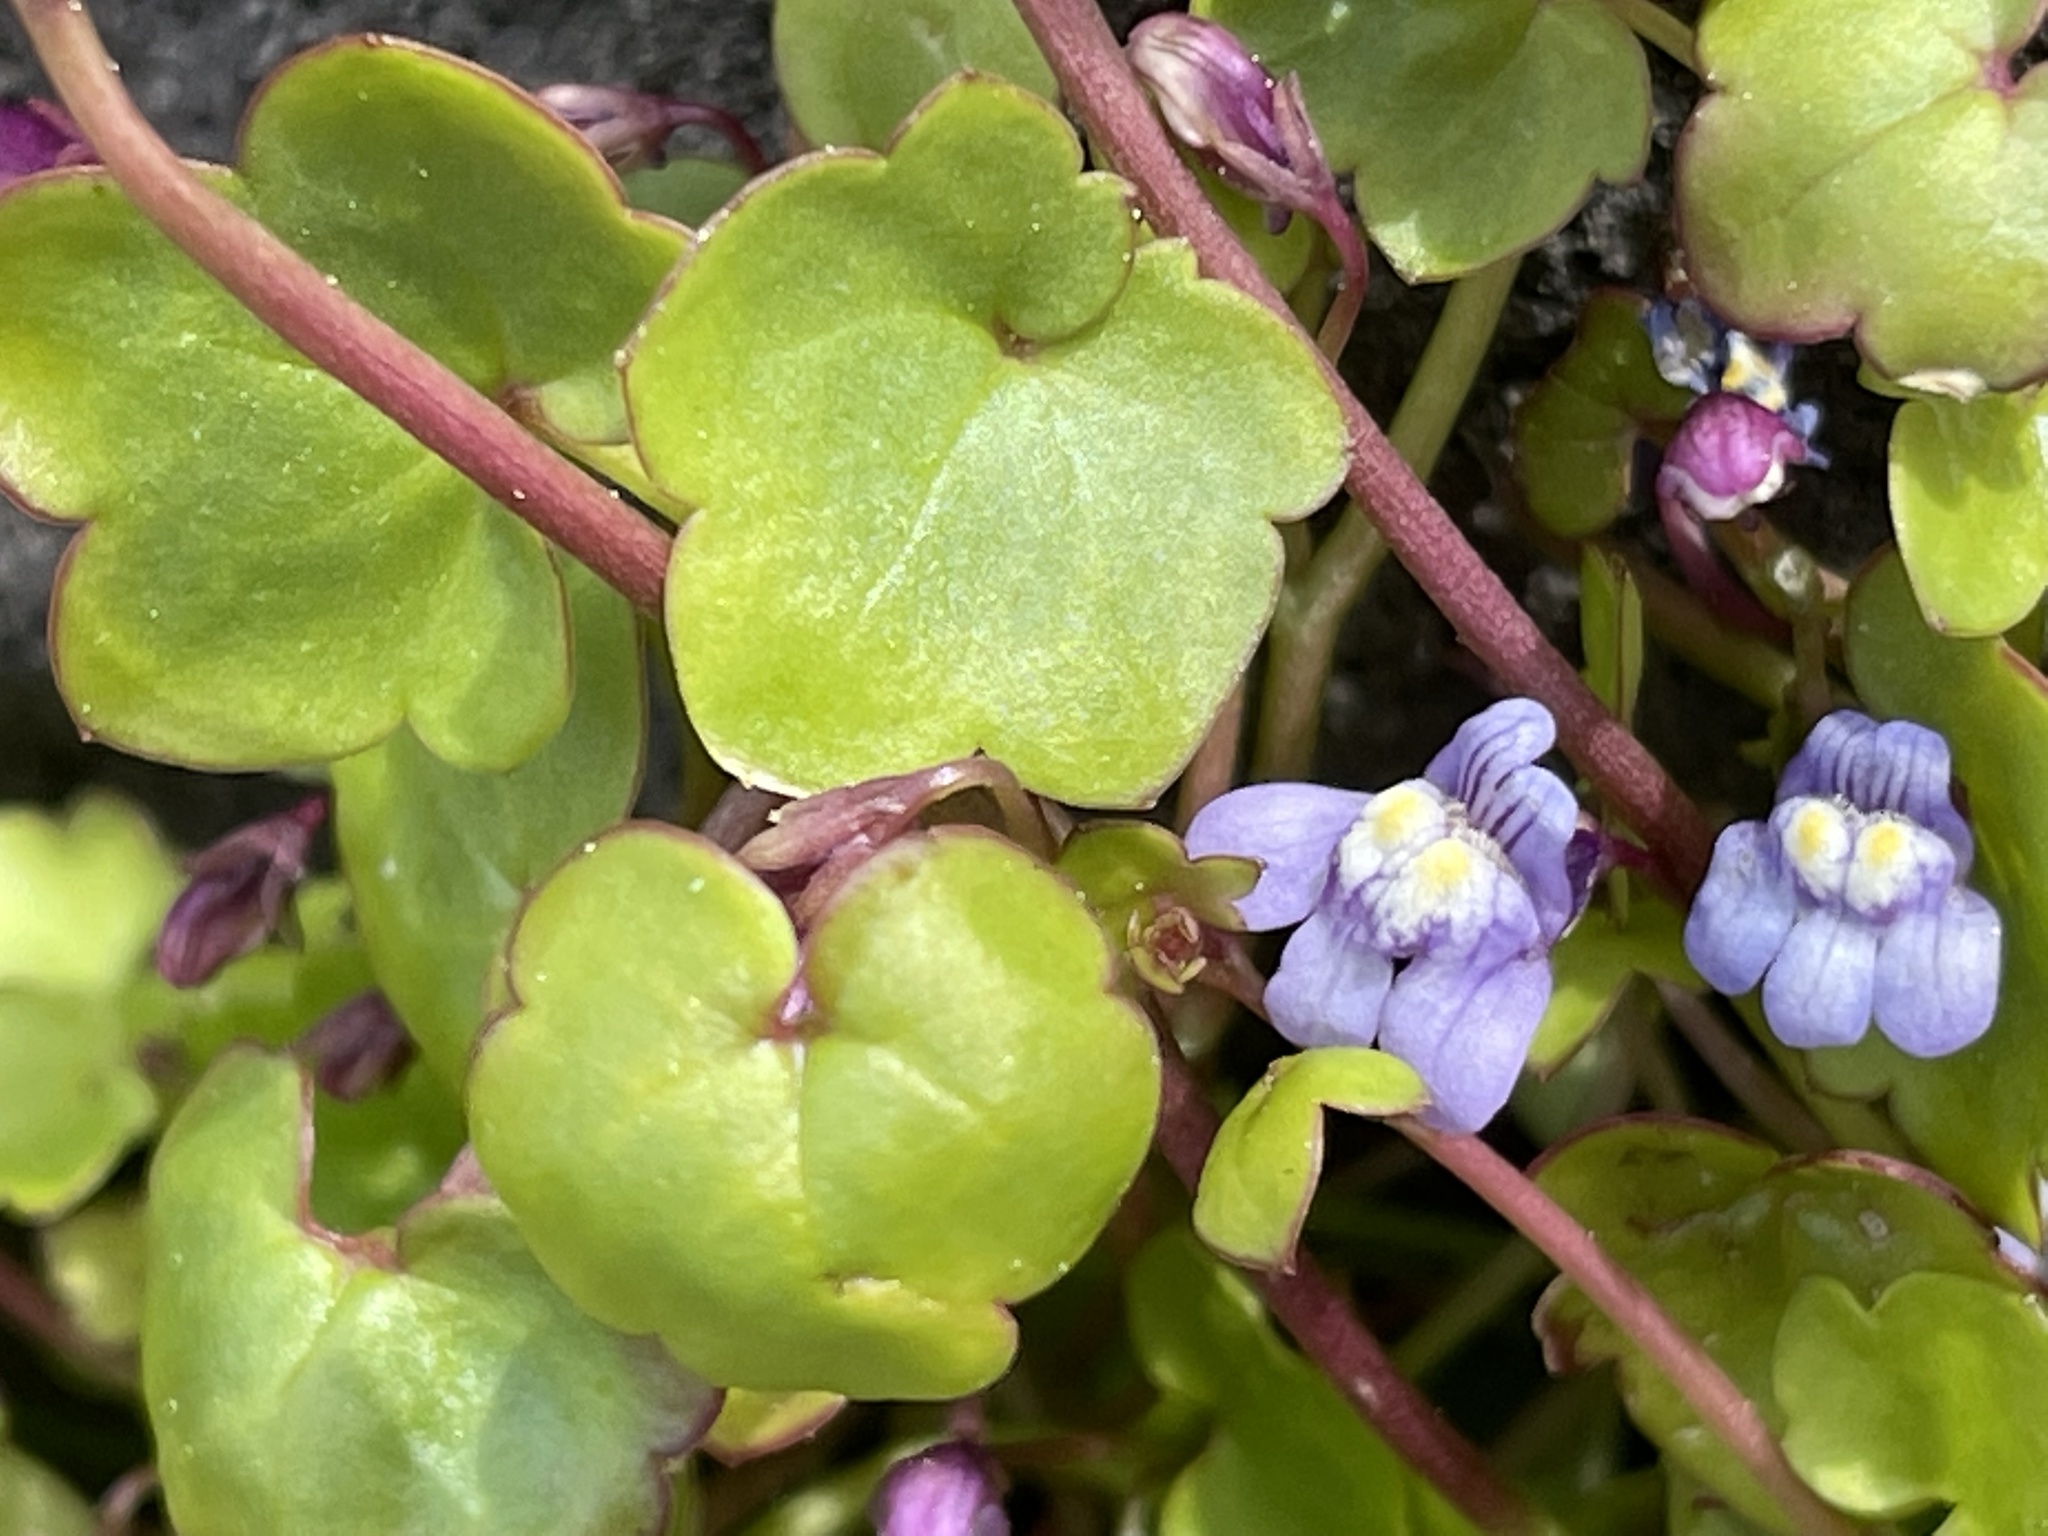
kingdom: Plantae
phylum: Tracheophyta
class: Magnoliopsida
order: Lamiales
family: Plantaginaceae
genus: Cymbalaria
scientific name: Cymbalaria muralis
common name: Ivy-leaved toadflax
